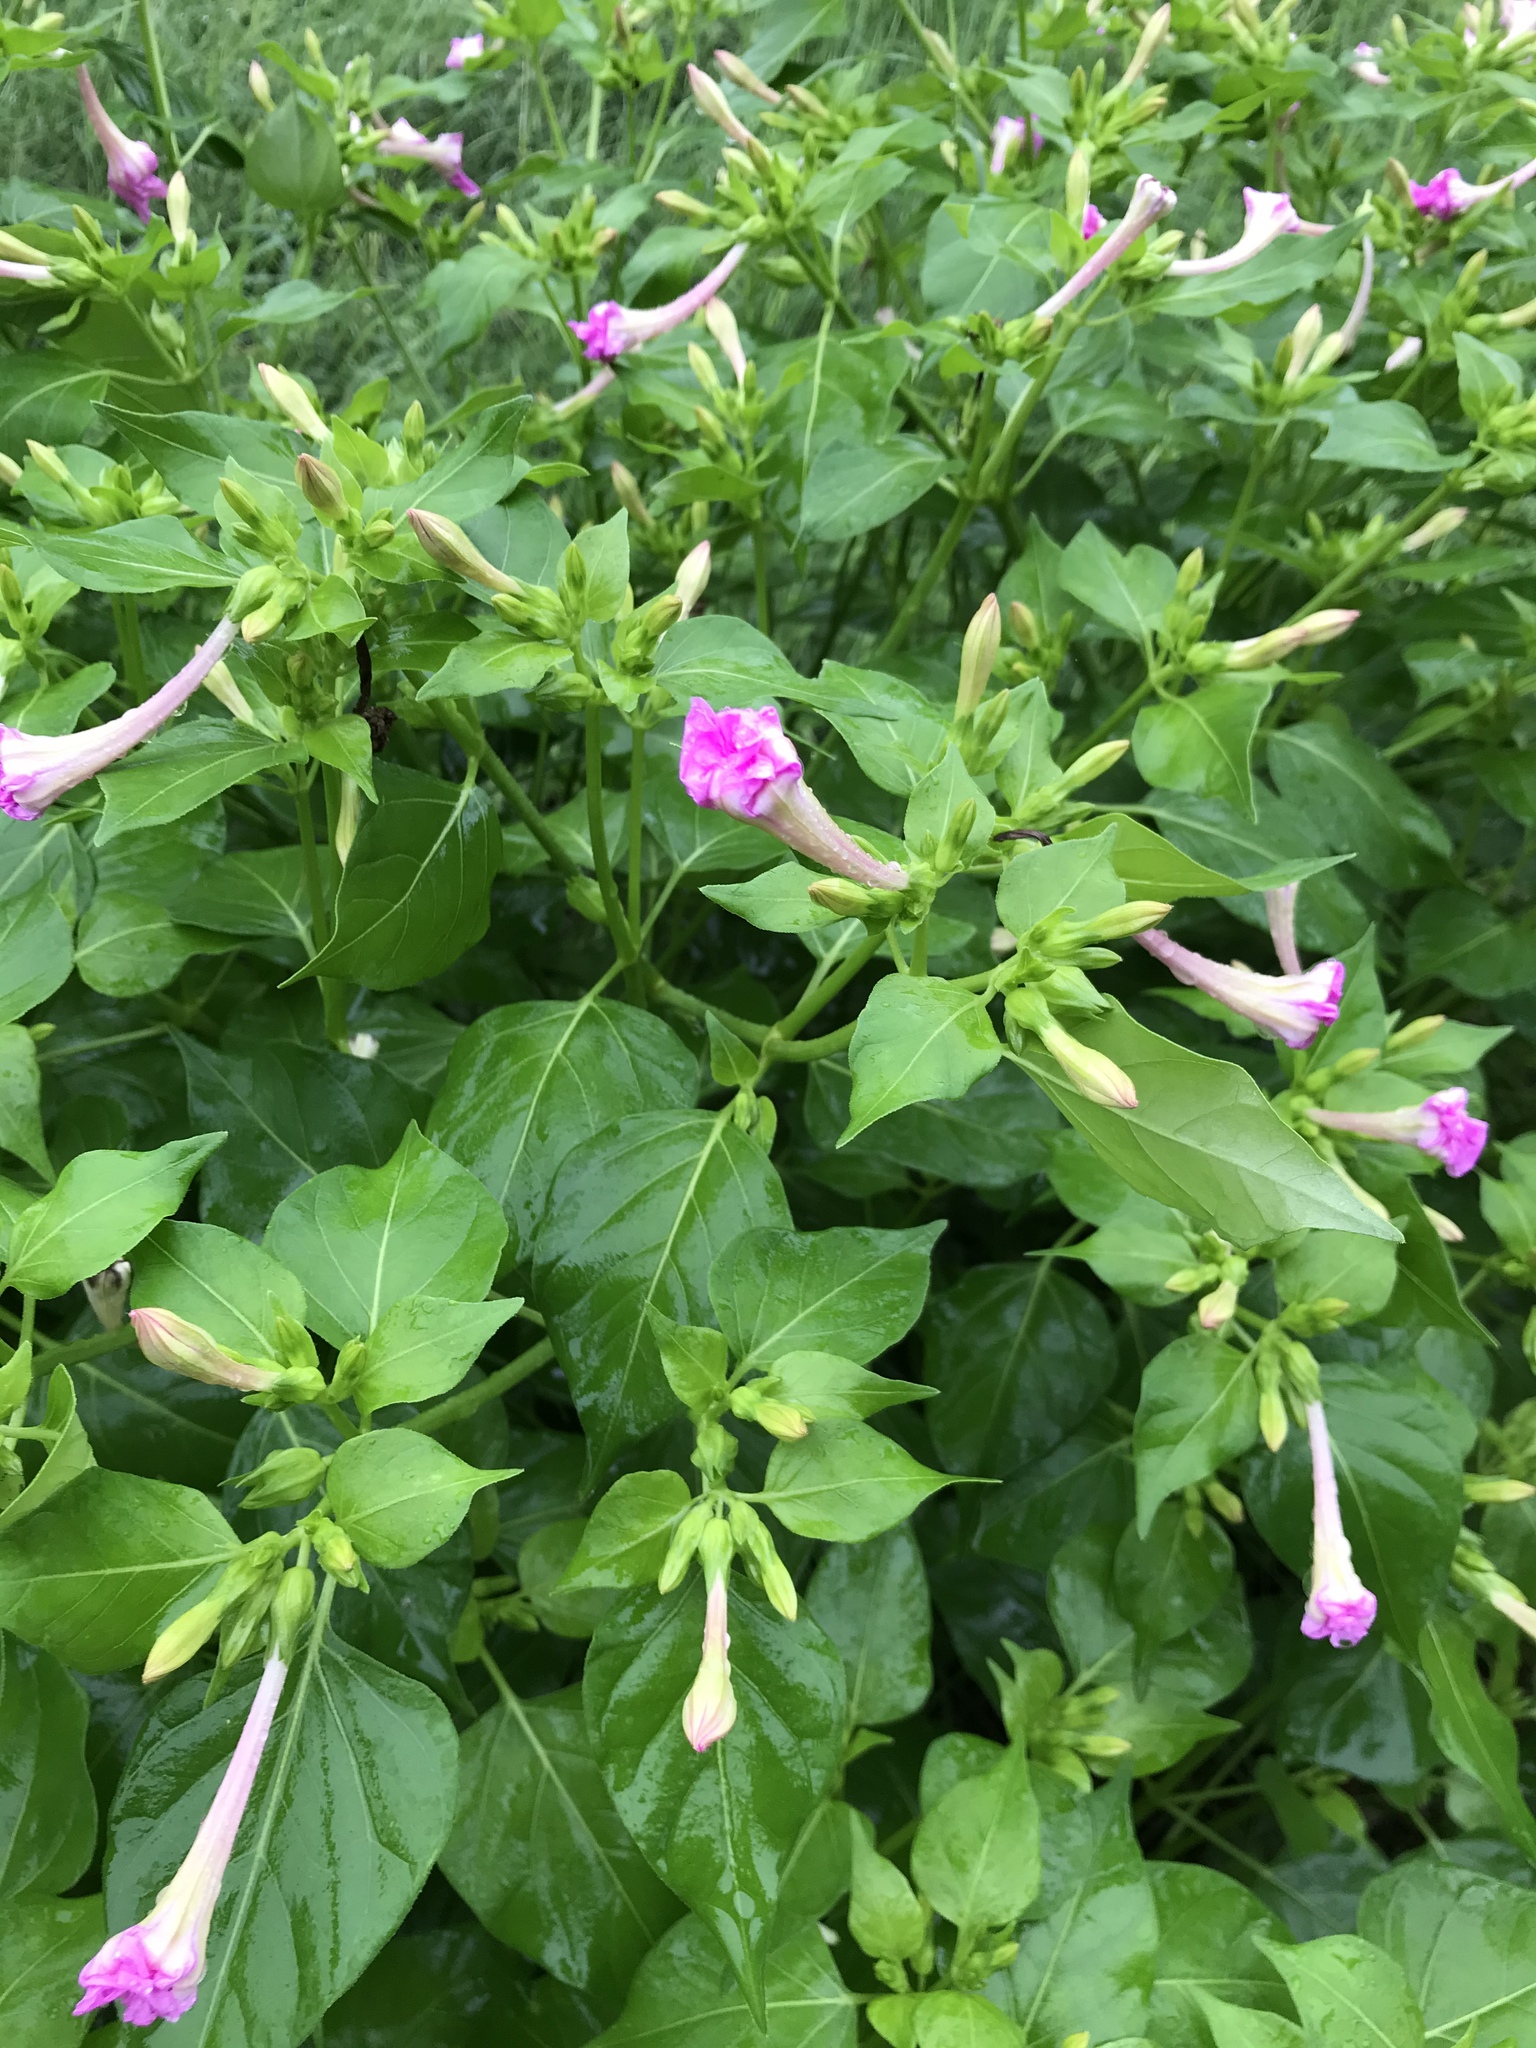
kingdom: Plantae
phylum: Tracheophyta
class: Magnoliopsida
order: Caryophyllales
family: Nyctaginaceae
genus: Mirabilis
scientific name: Mirabilis jalapa
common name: Marvel-of-peru
